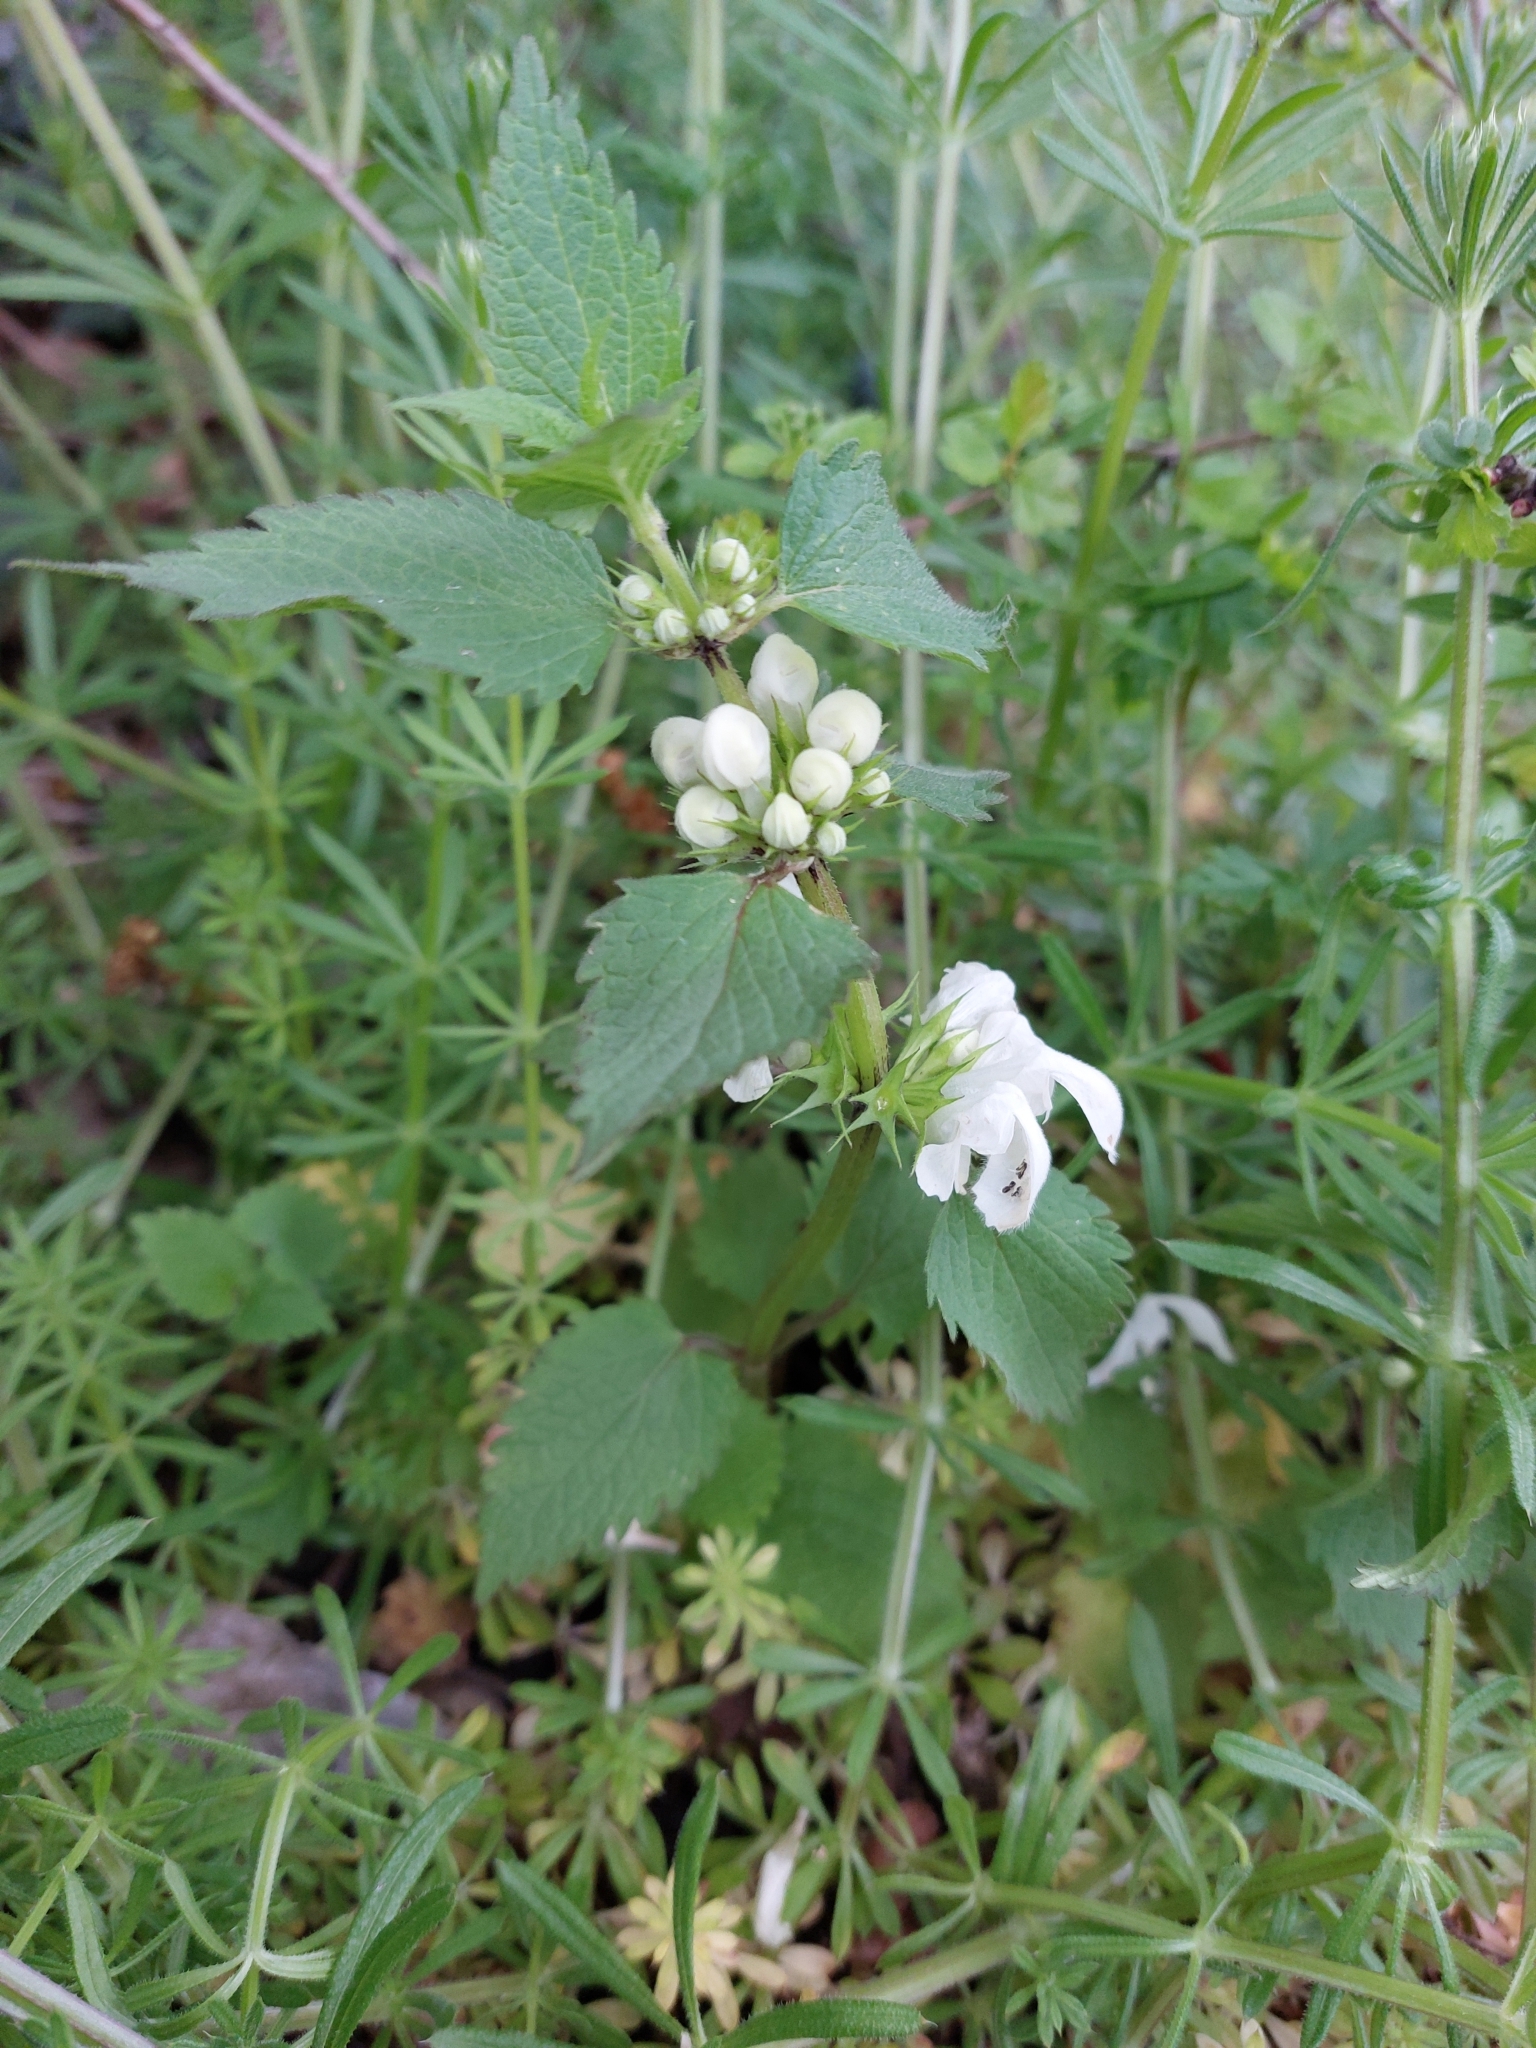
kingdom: Plantae
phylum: Tracheophyta
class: Magnoliopsida
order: Lamiales
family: Lamiaceae
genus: Lamium
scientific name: Lamium album
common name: White dead-nettle
